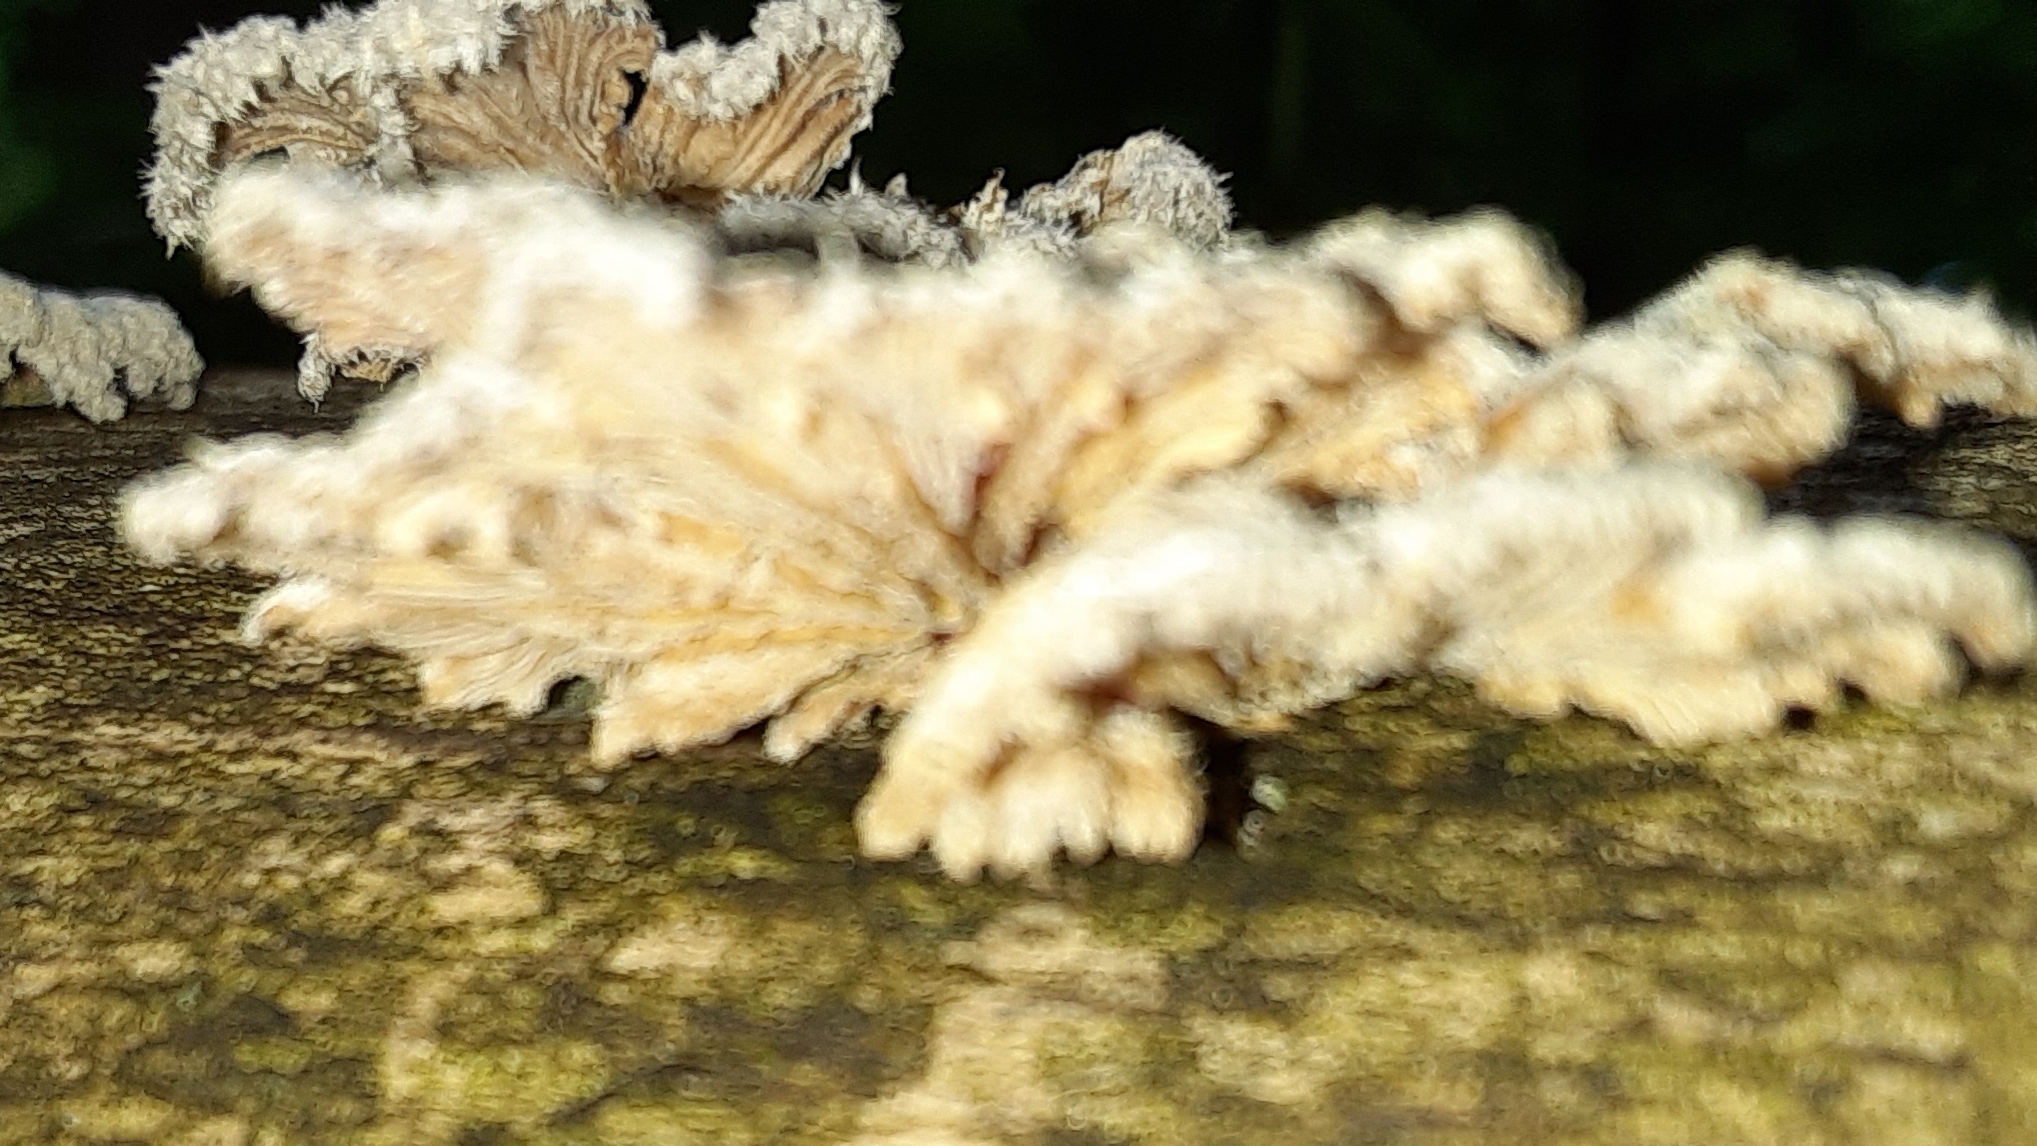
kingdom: Fungi
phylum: Basidiomycota
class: Agaricomycetes
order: Agaricales
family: Schizophyllaceae
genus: Schizophyllum
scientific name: Schizophyllum commune
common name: Common porecrust
